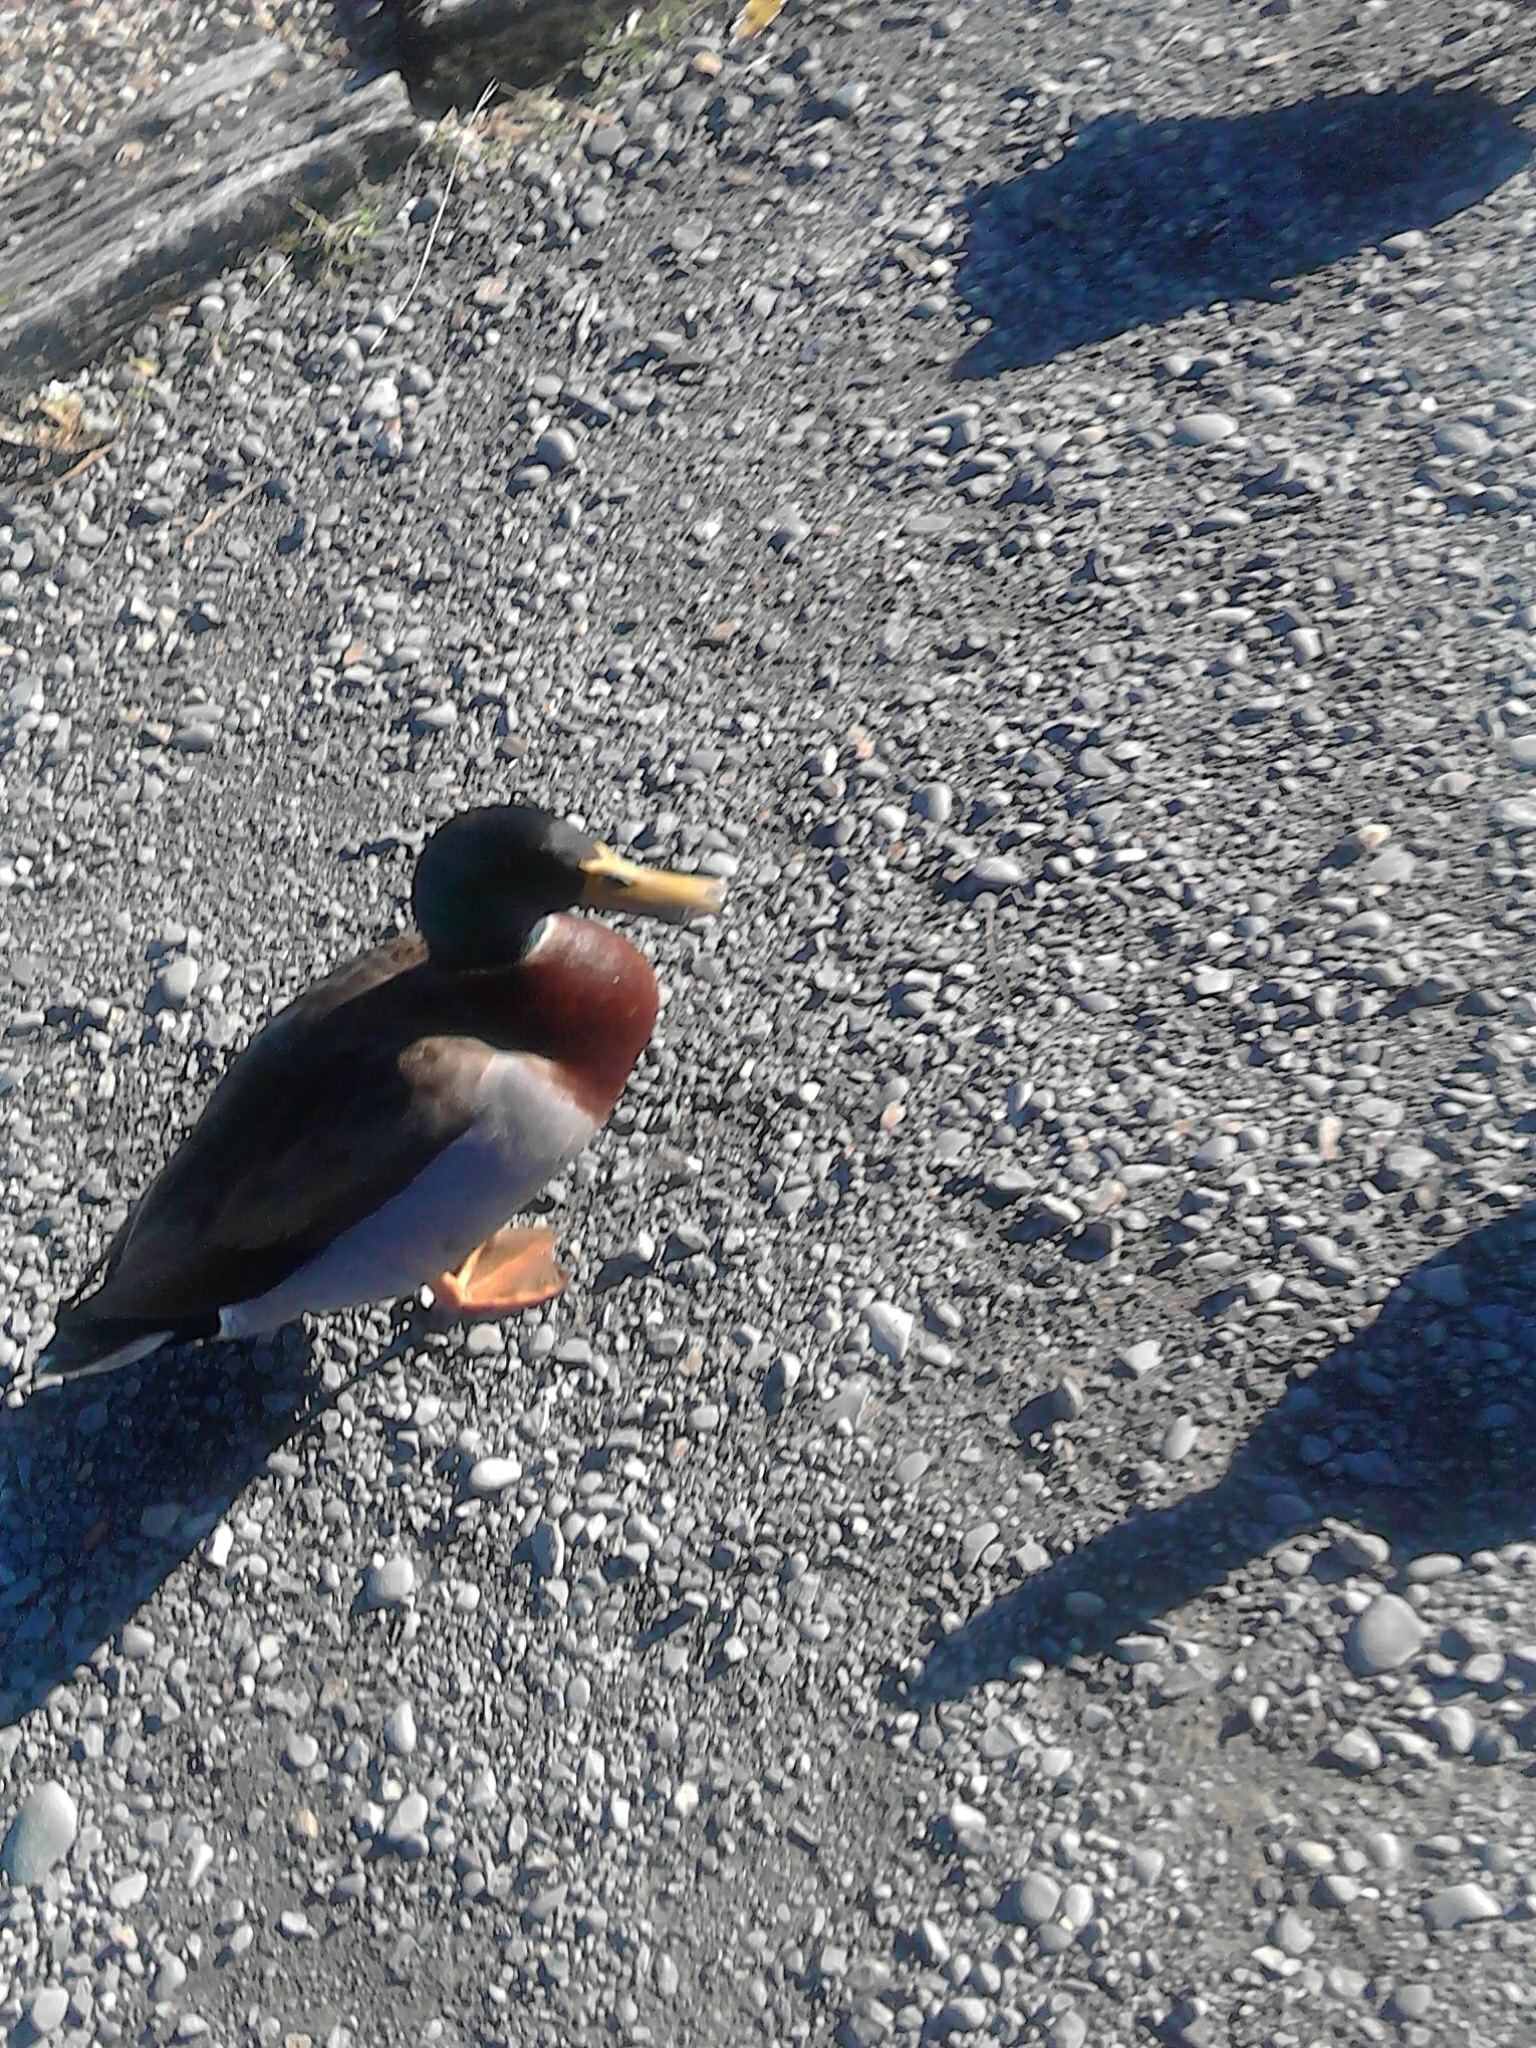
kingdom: Animalia
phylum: Chordata
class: Aves
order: Anseriformes
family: Anatidae
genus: Anas
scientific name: Anas platyrhynchos
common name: Mallard
